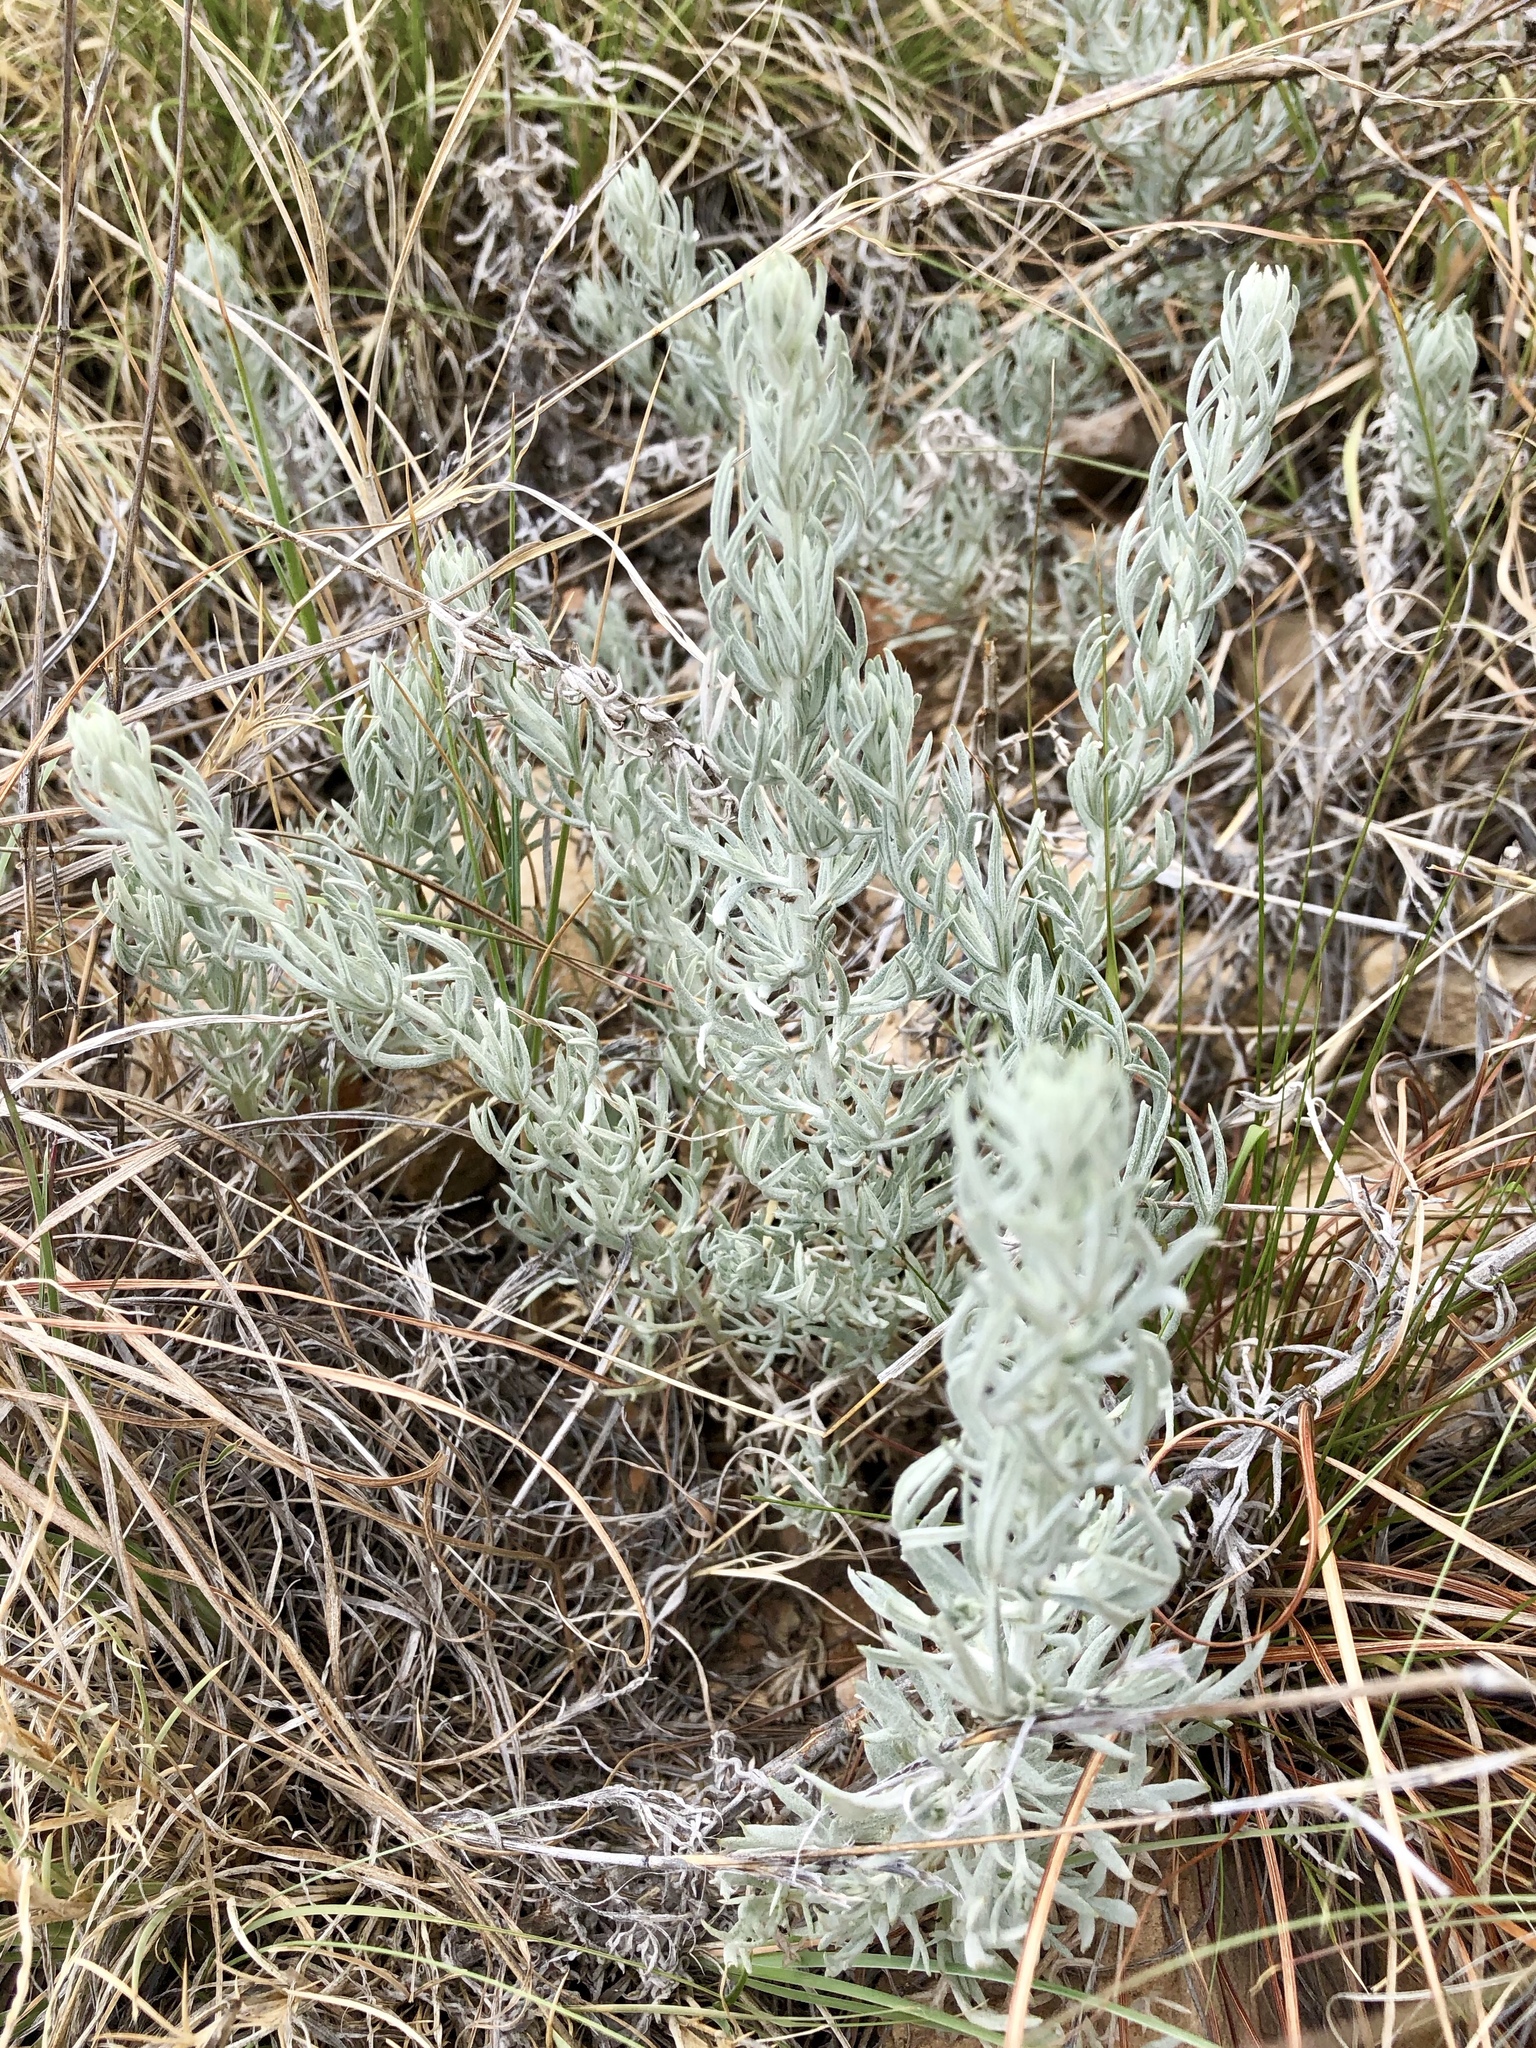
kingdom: Plantae
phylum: Tracheophyta
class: Magnoliopsida
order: Caryophyllales
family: Amaranthaceae
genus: Krascheninnikovia
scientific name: Krascheninnikovia lanata
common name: Winterfat
